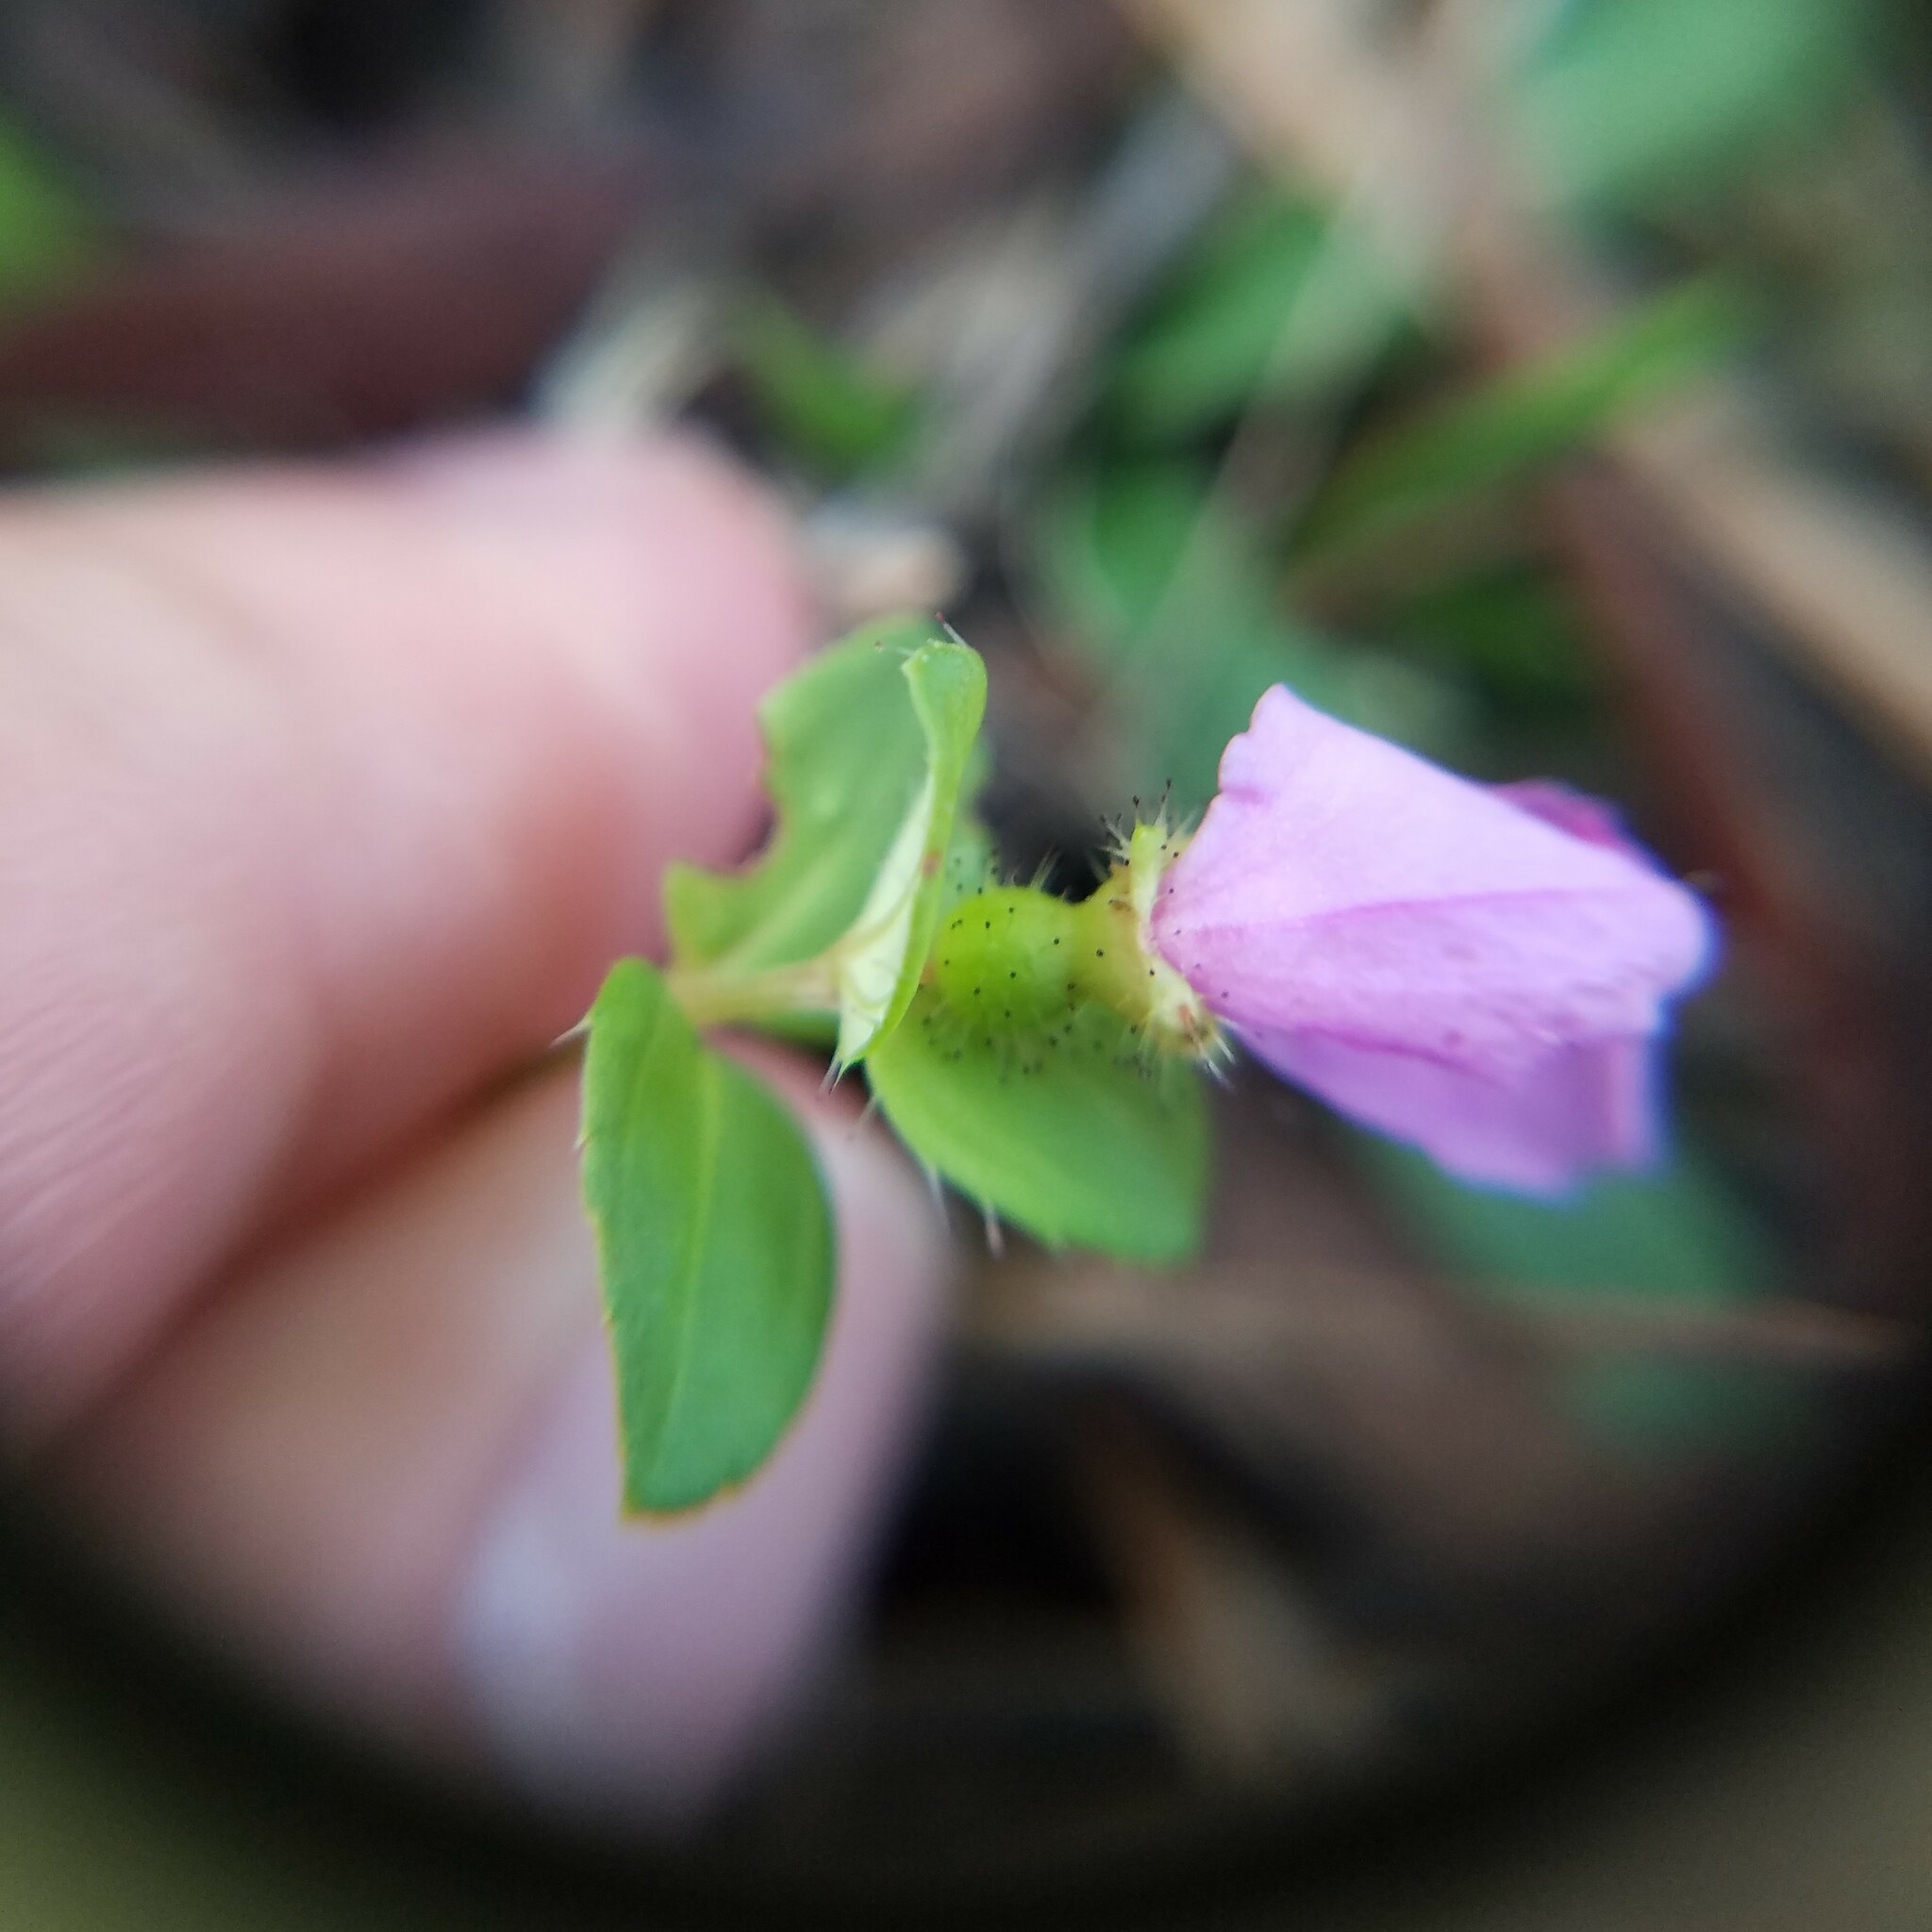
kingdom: Plantae
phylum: Tracheophyta
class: Magnoliopsida
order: Myrtales
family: Melastomataceae
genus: Rhexia
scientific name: Rhexia nuttallii
